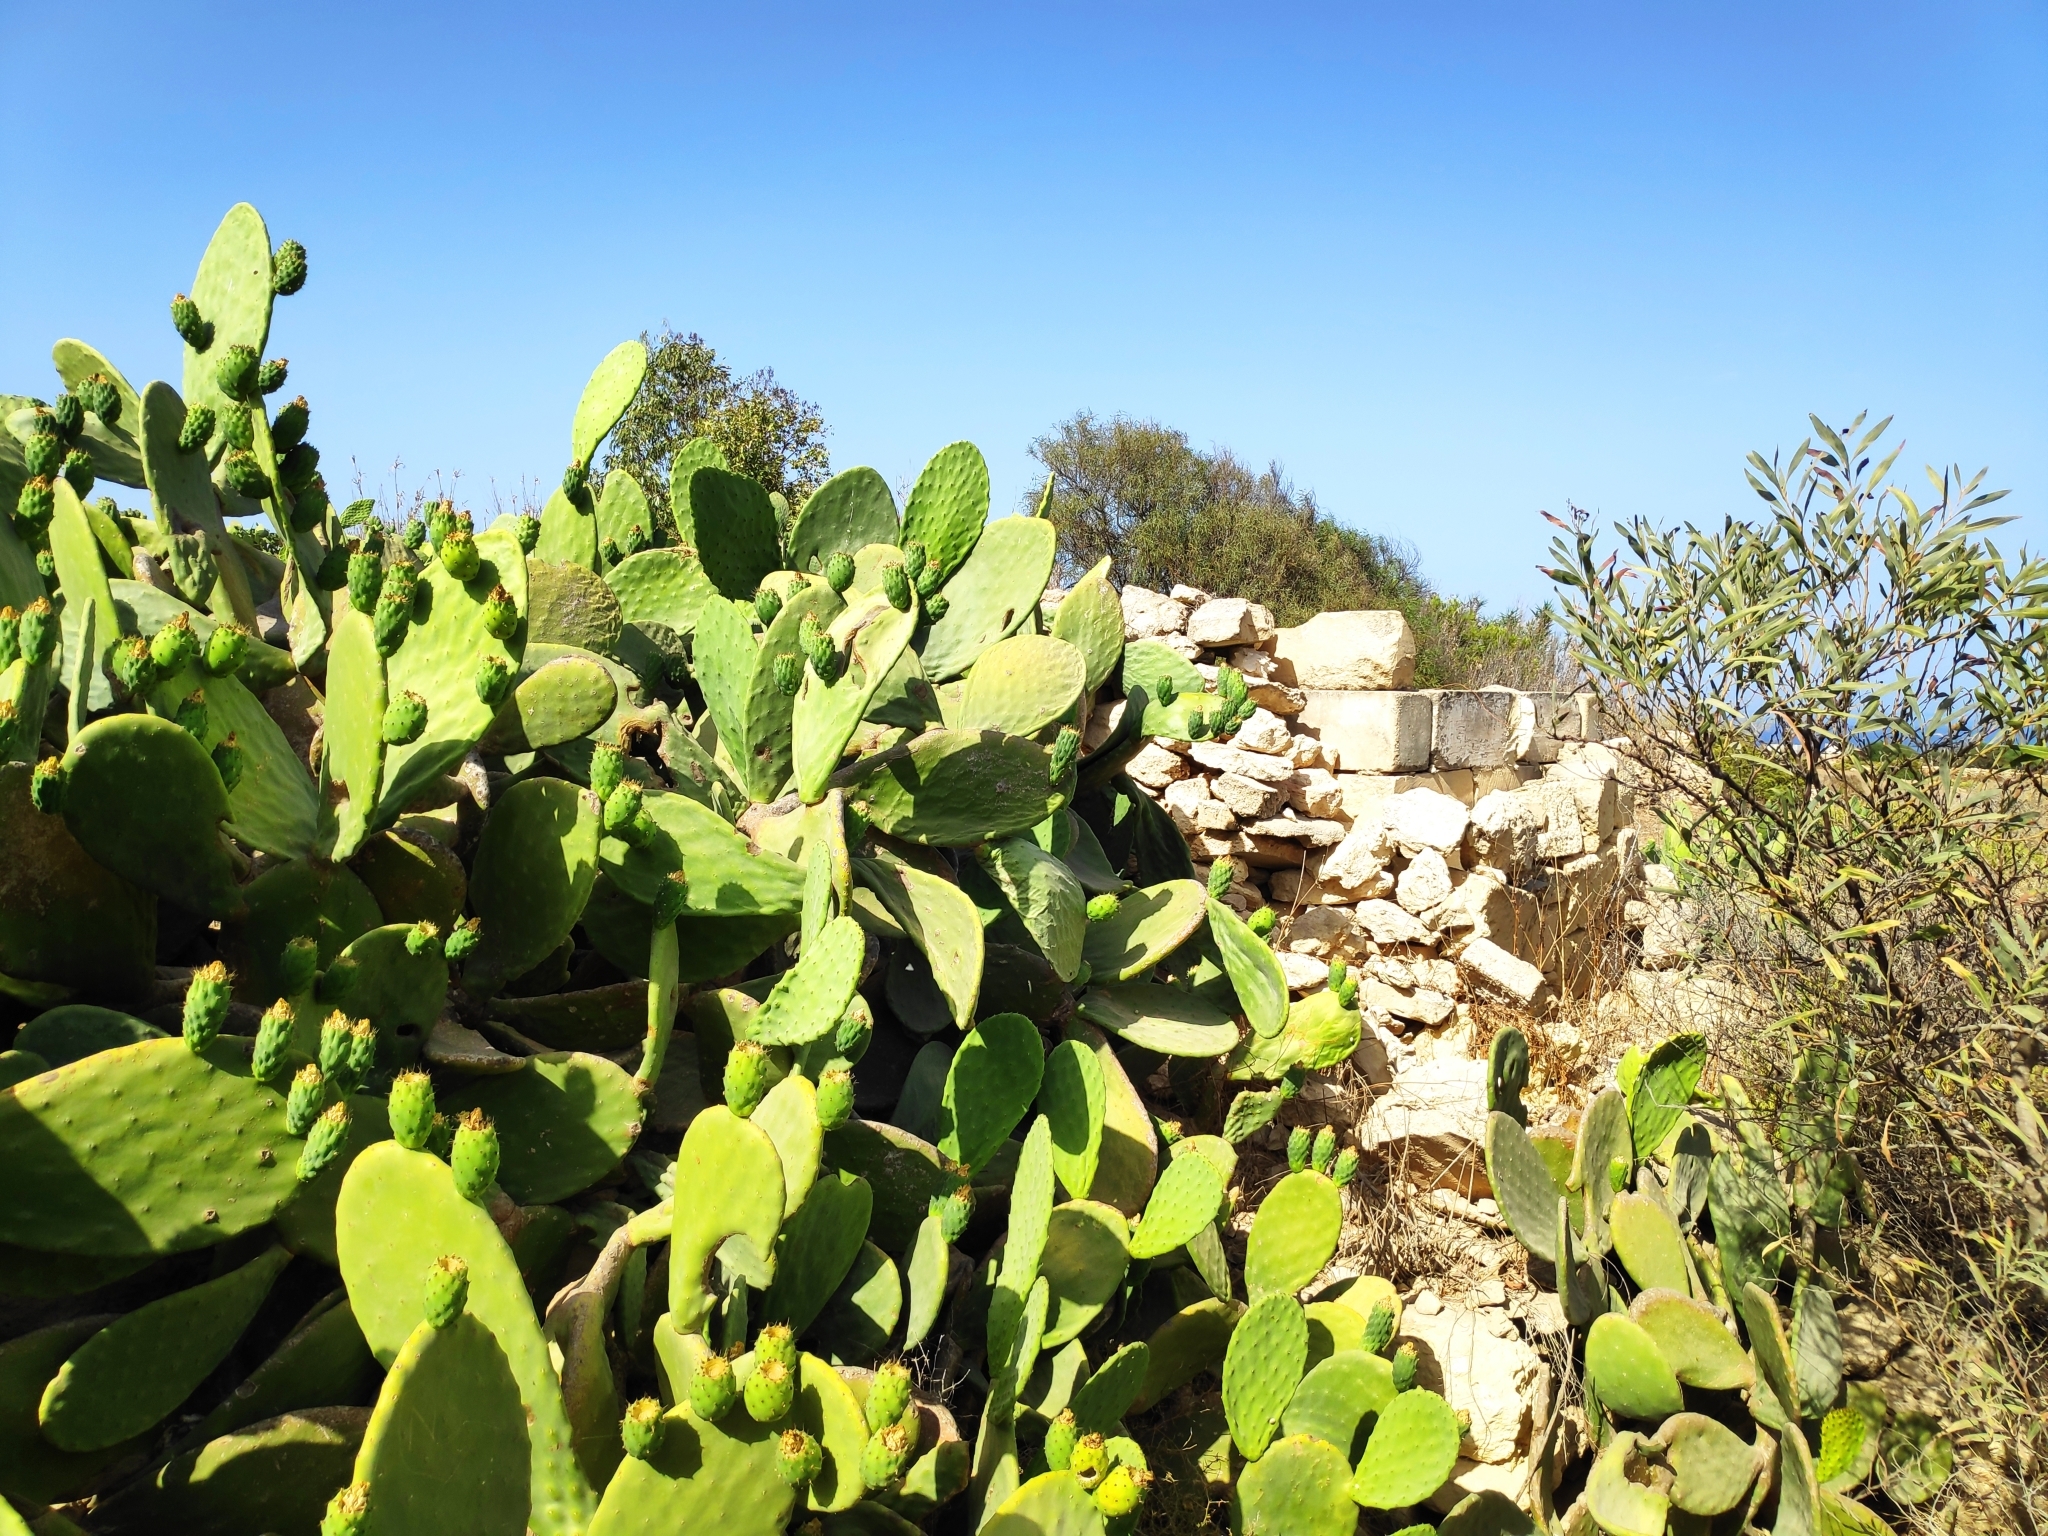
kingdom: Plantae
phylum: Tracheophyta
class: Magnoliopsida
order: Caryophyllales
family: Cactaceae
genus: Opuntia
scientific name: Opuntia ficus-indica
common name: Barbary fig
